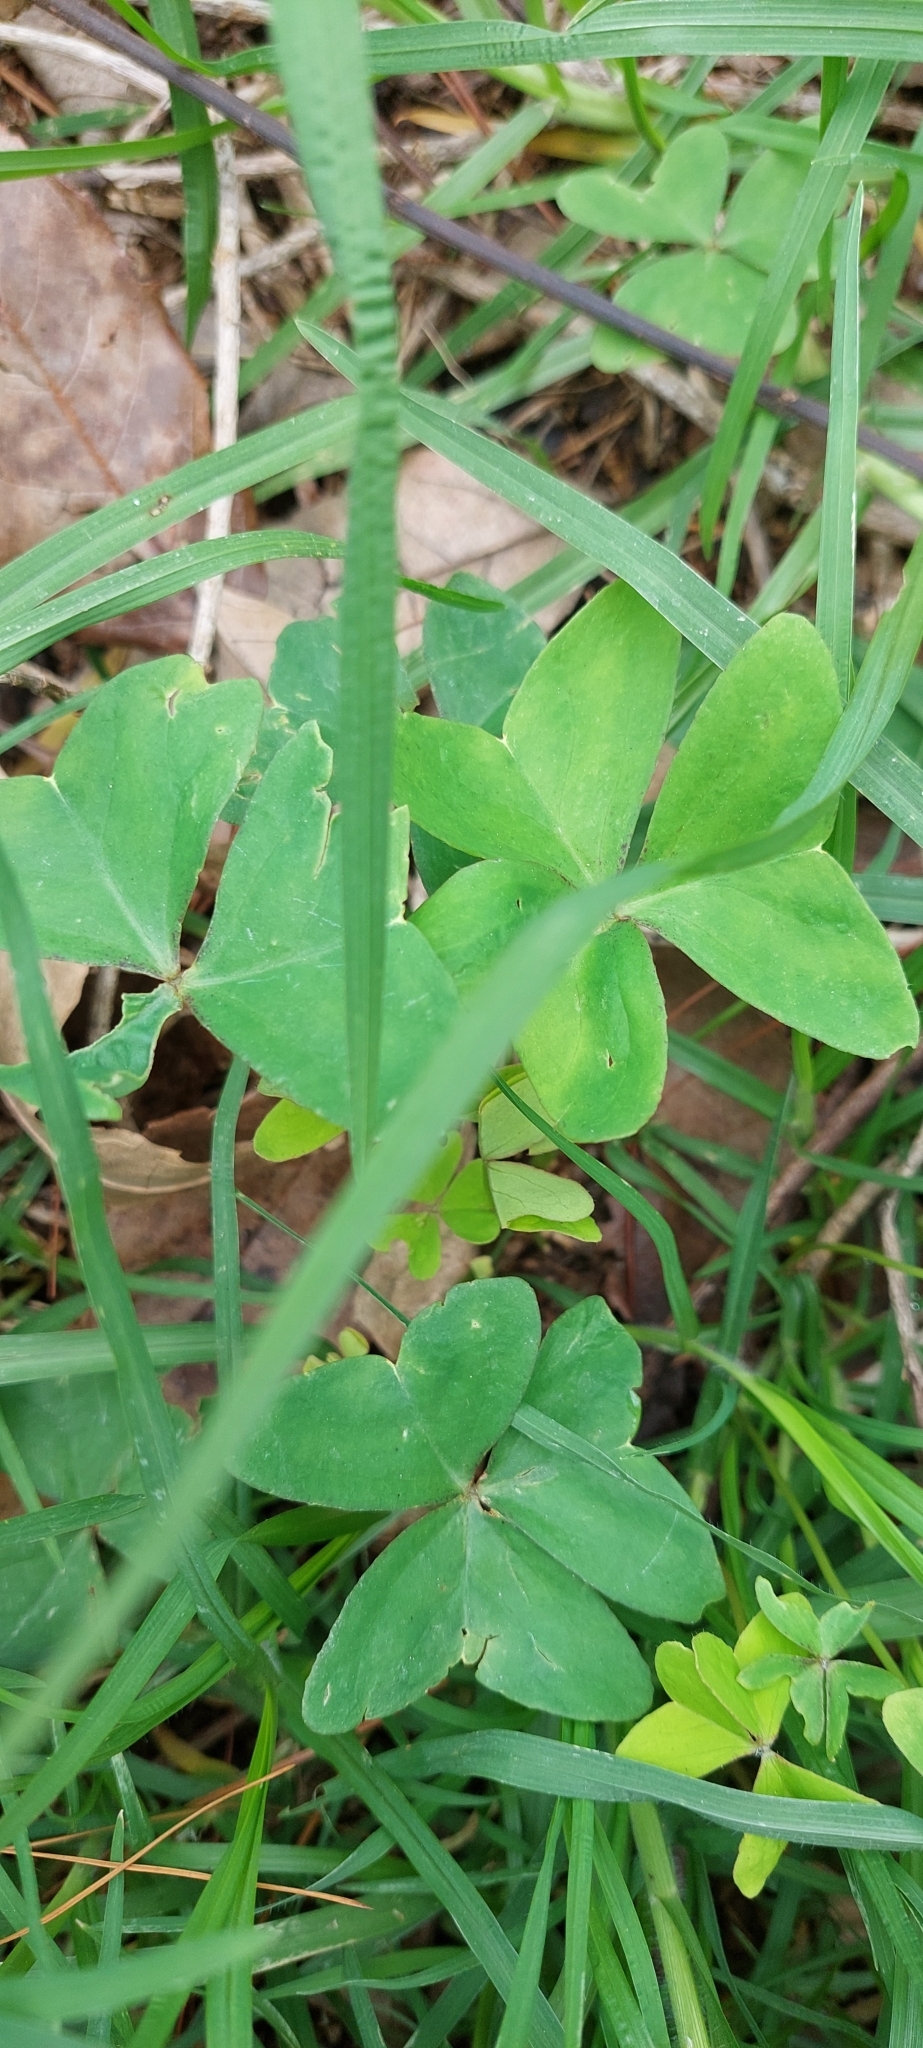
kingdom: Plantae
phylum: Tracheophyta
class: Magnoliopsida
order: Oxalidales
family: Oxalidaceae
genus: Oxalis
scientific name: Oxalis latifolia
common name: Garden pink-sorrel
